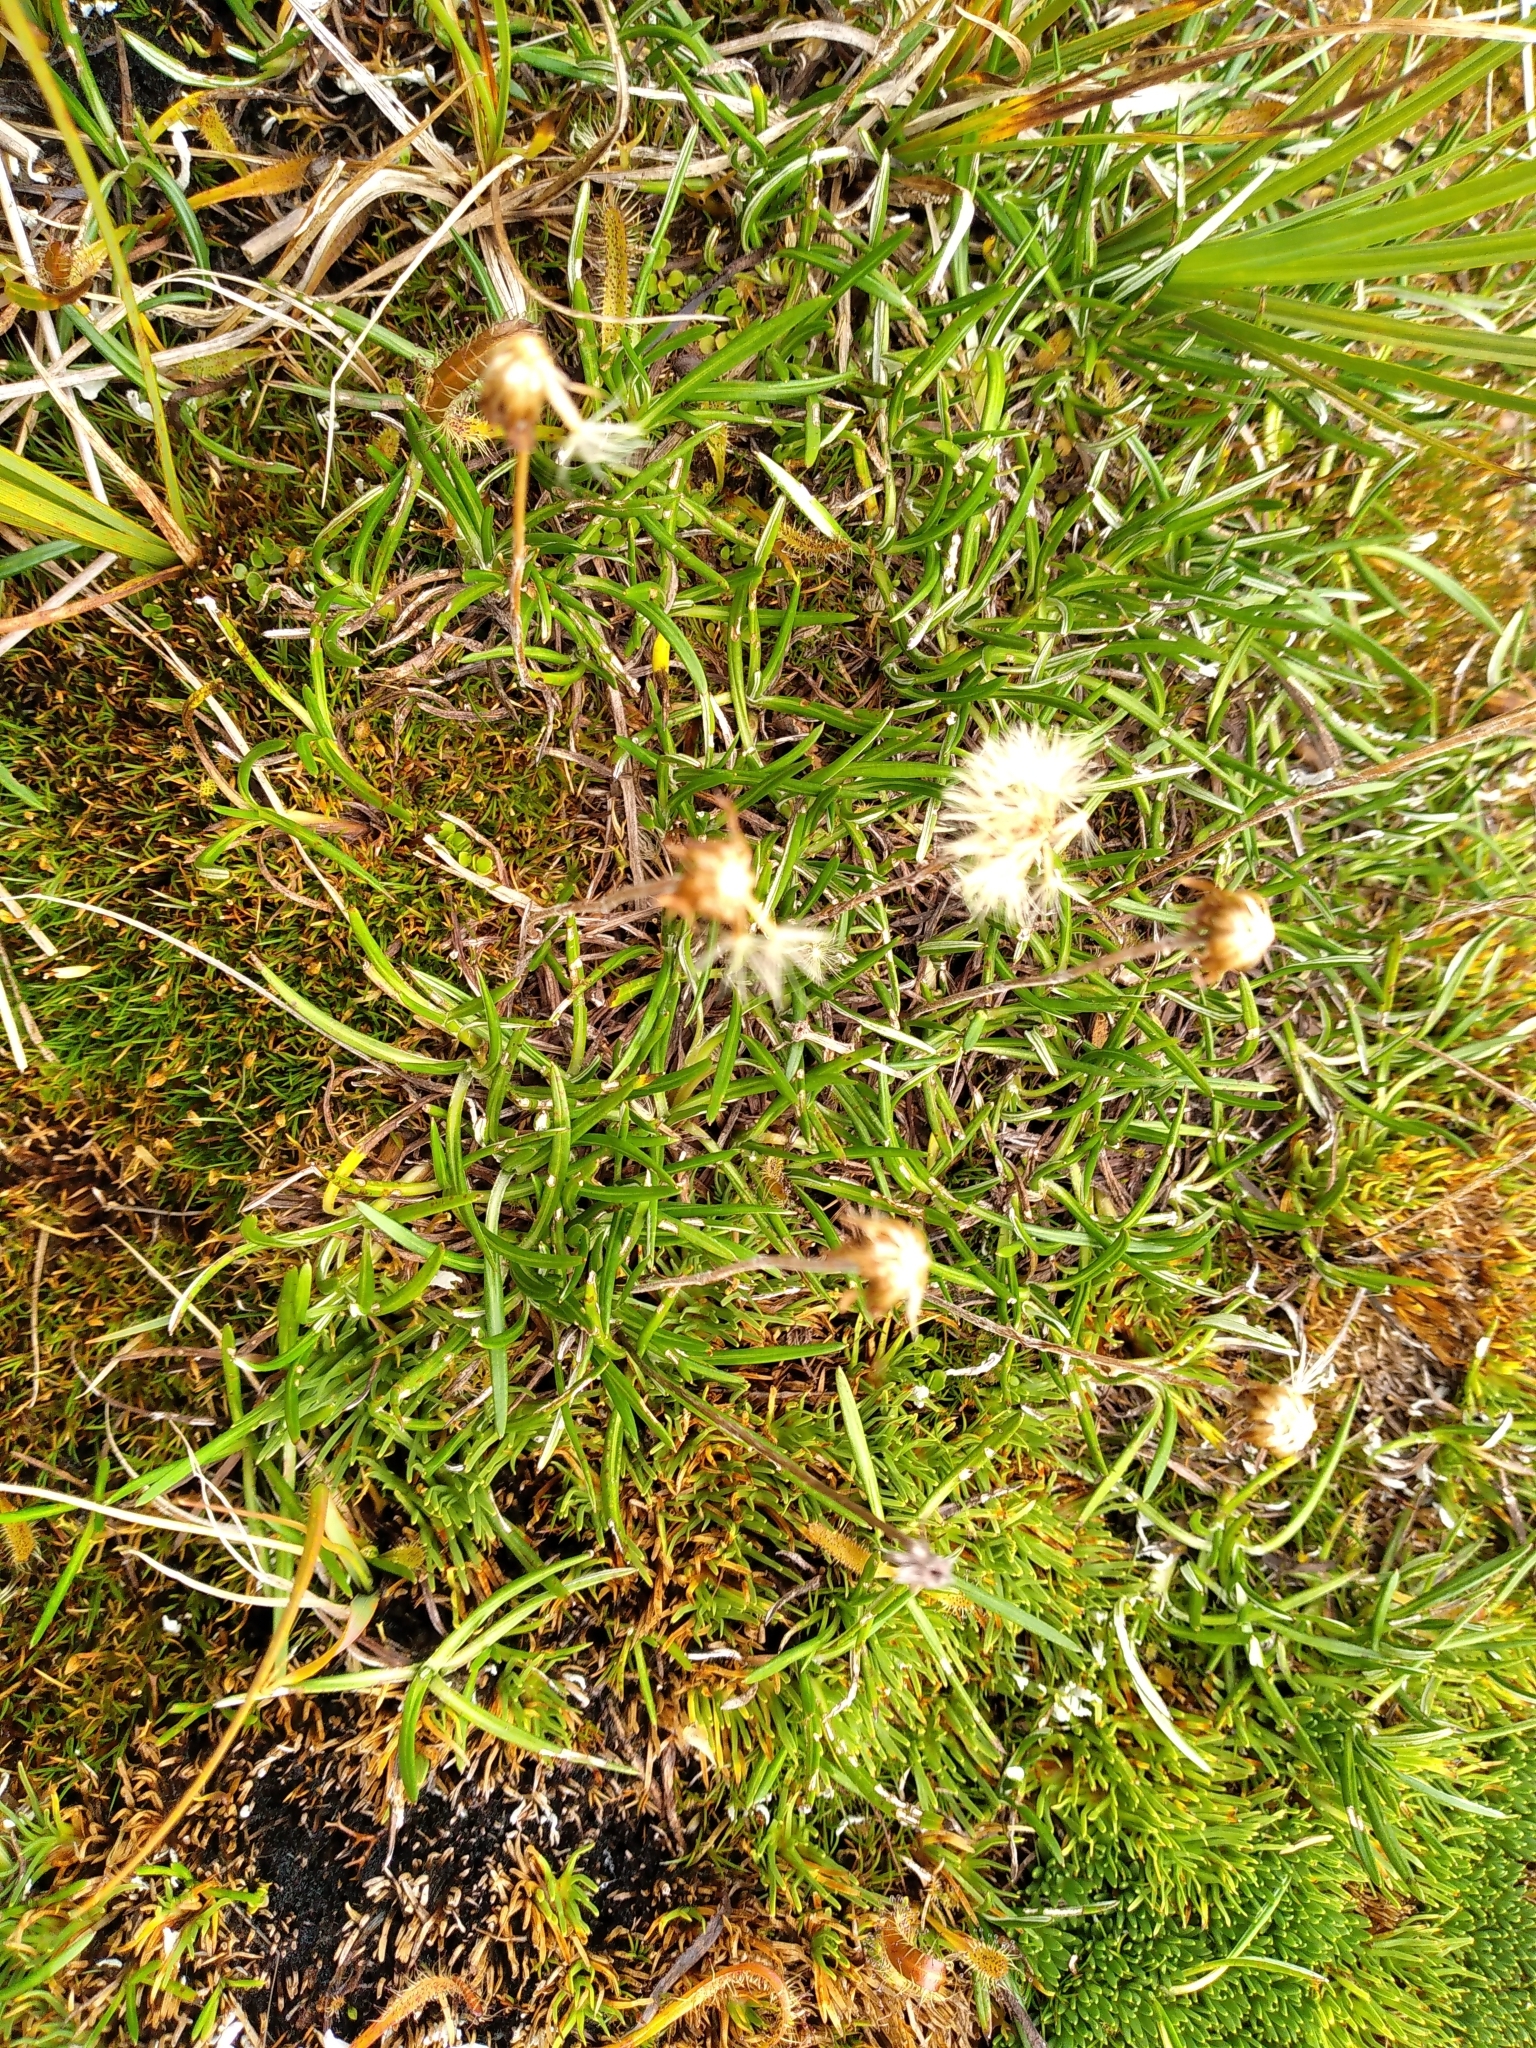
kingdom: Plantae
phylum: Tracheophyta
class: Magnoliopsida
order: Asterales
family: Asteraceae
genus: Celmisia
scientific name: Celmisia alpina
